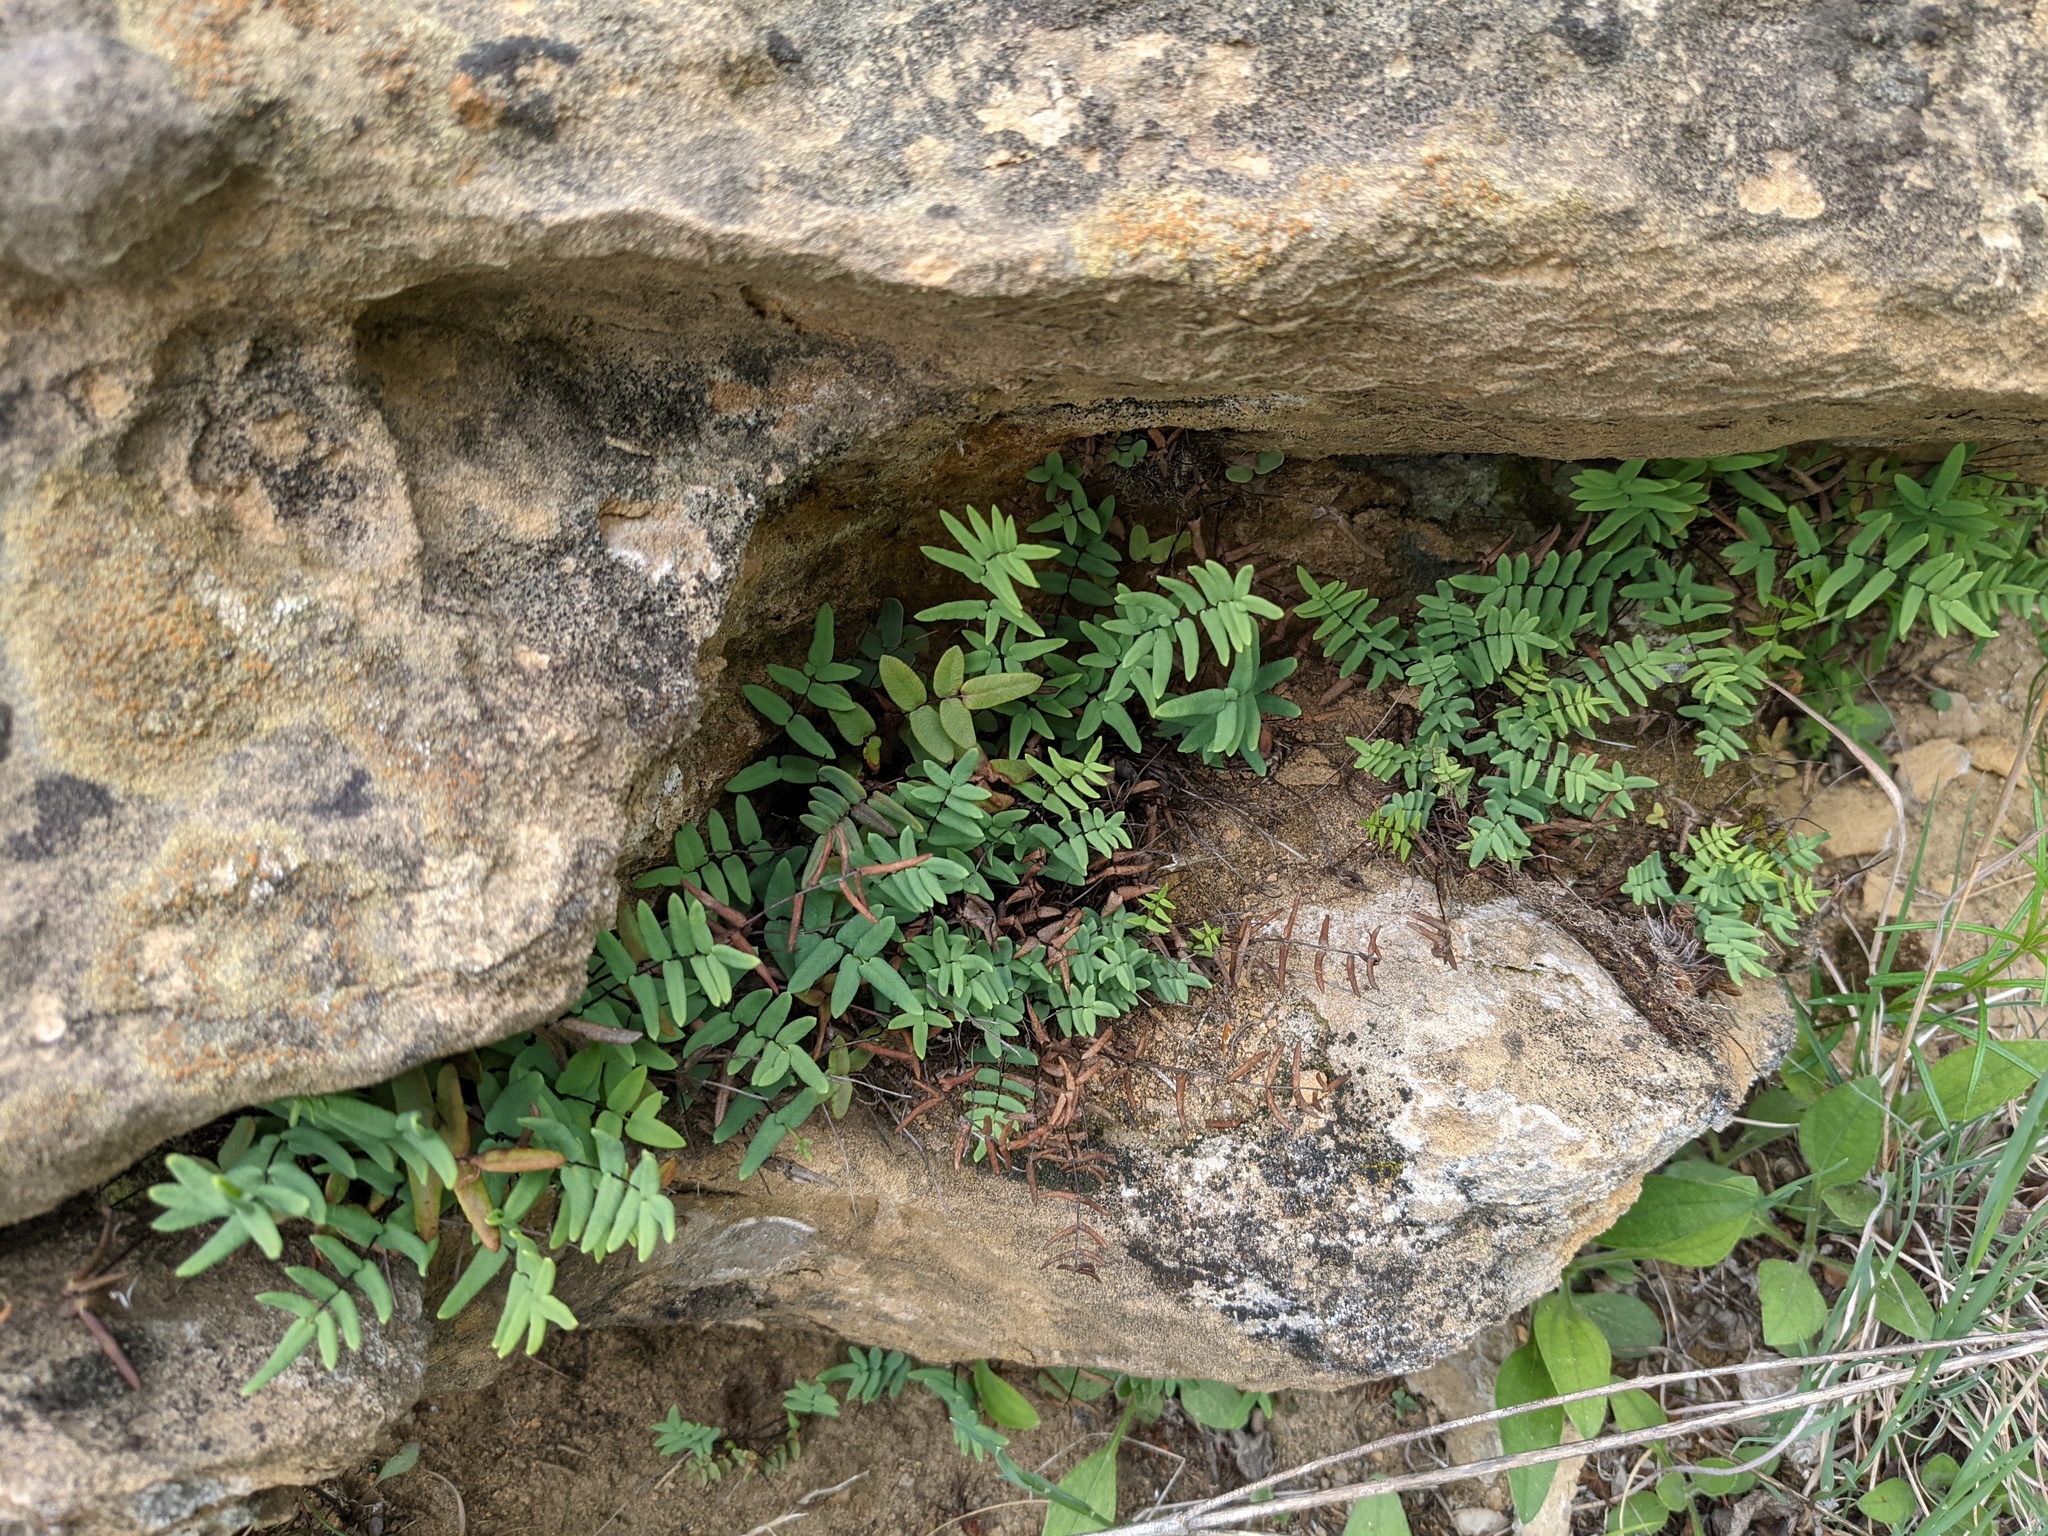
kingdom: Plantae
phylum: Tracheophyta
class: Polypodiopsida
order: Polypodiales
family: Pteridaceae
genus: Pellaea
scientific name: Pellaea glabella
